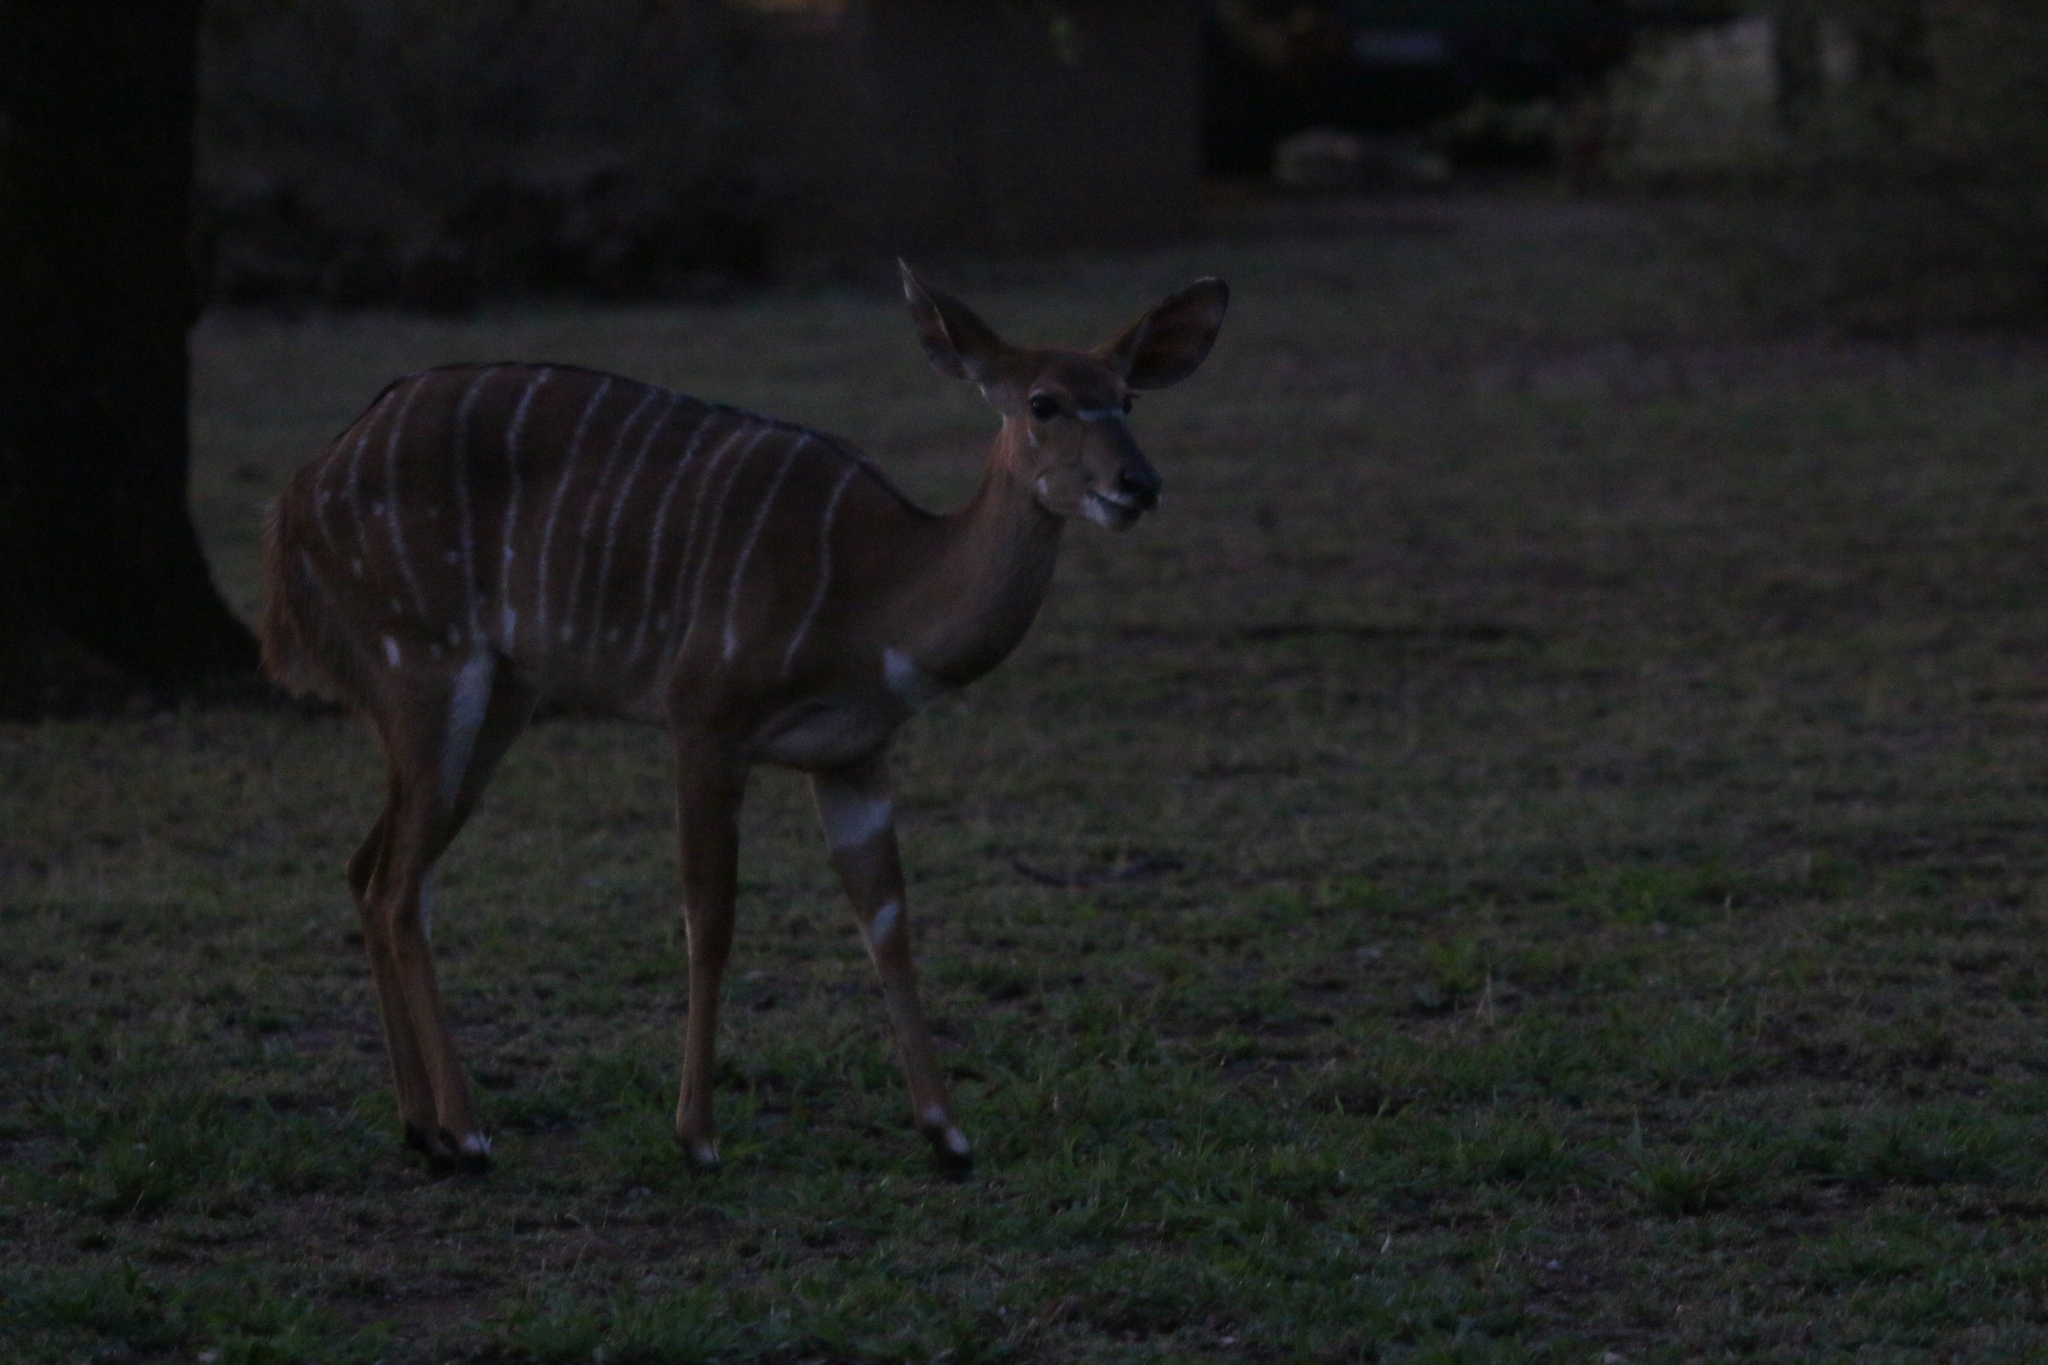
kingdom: Animalia
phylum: Chordata
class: Mammalia
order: Artiodactyla
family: Bovidae
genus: Tragelaphus
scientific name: Tragelaphus angasii
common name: Nyala
